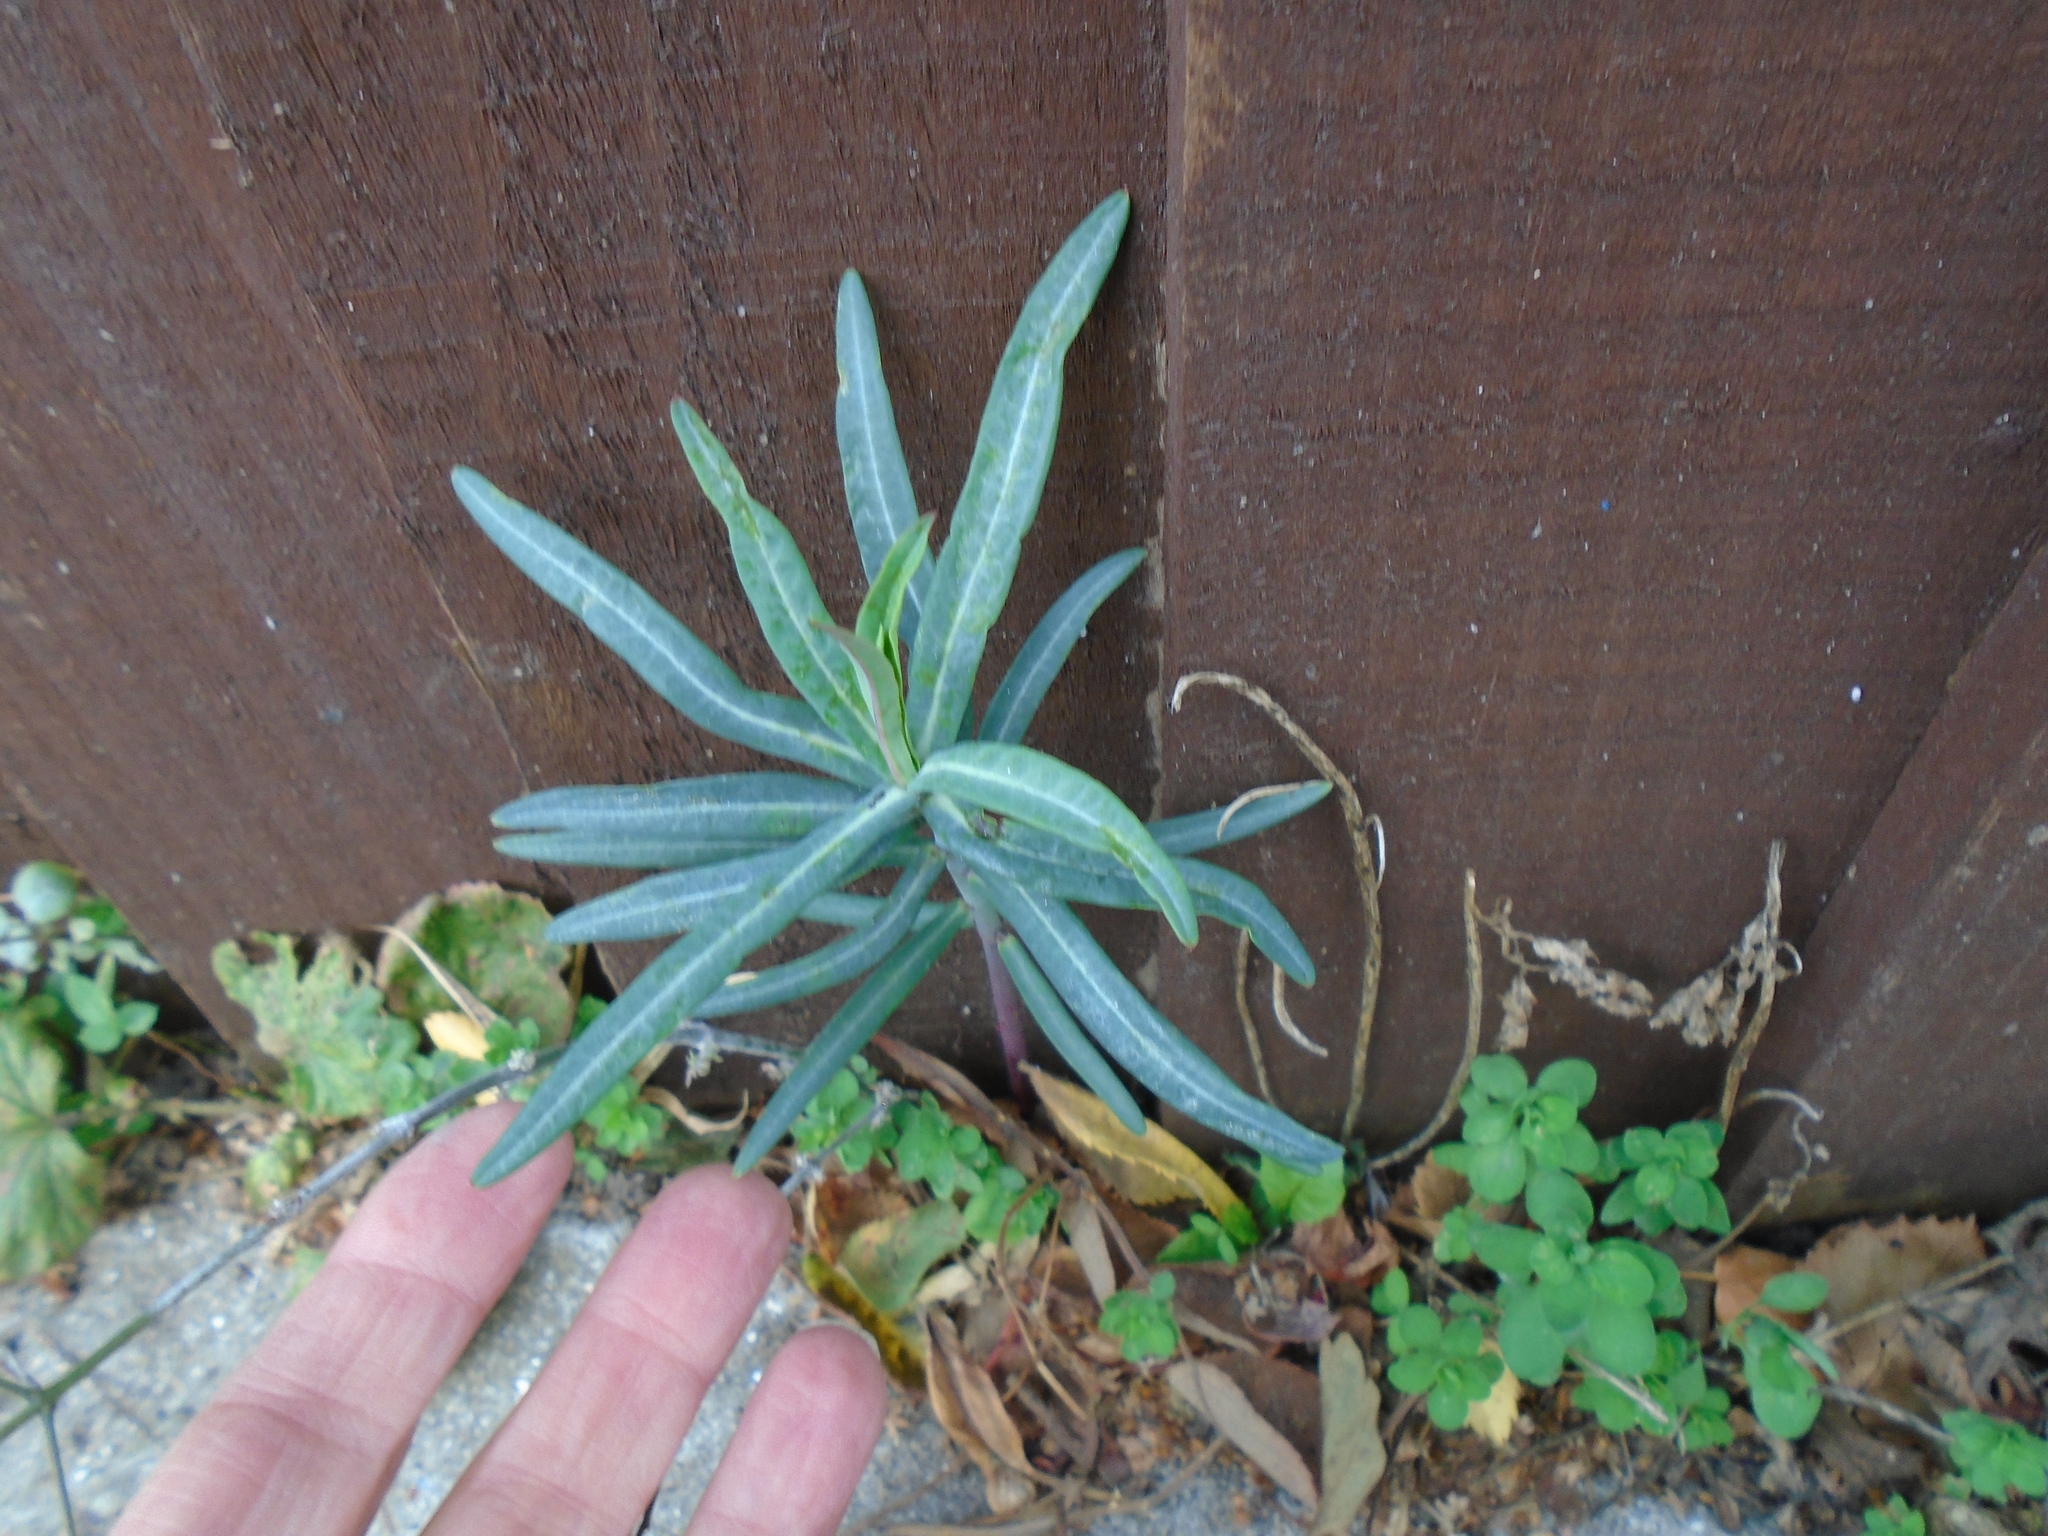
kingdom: Plantae
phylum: Tracheophyta
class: Magnoliopsida
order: Malpighiales
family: Euphorbiaceae
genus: Euphorbia
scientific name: Euphorbia lathyris
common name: Caper spurge
